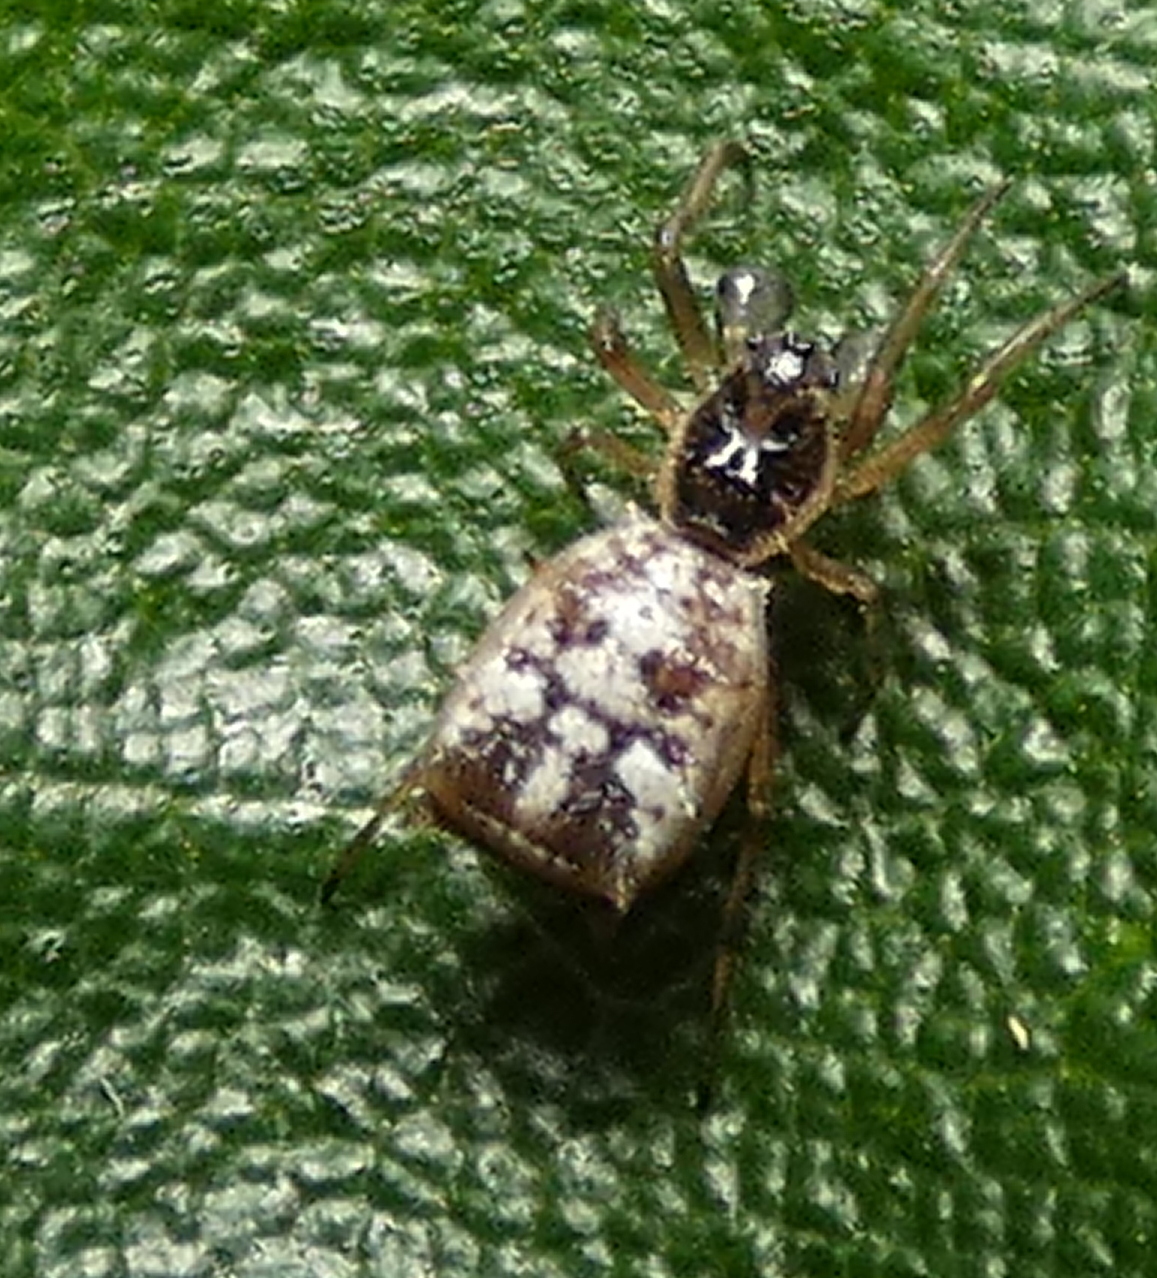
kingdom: Animalia
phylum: Arthropoda
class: Arachnida
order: Araneae
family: Araneidae
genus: Micrathena
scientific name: Micrathena picta
